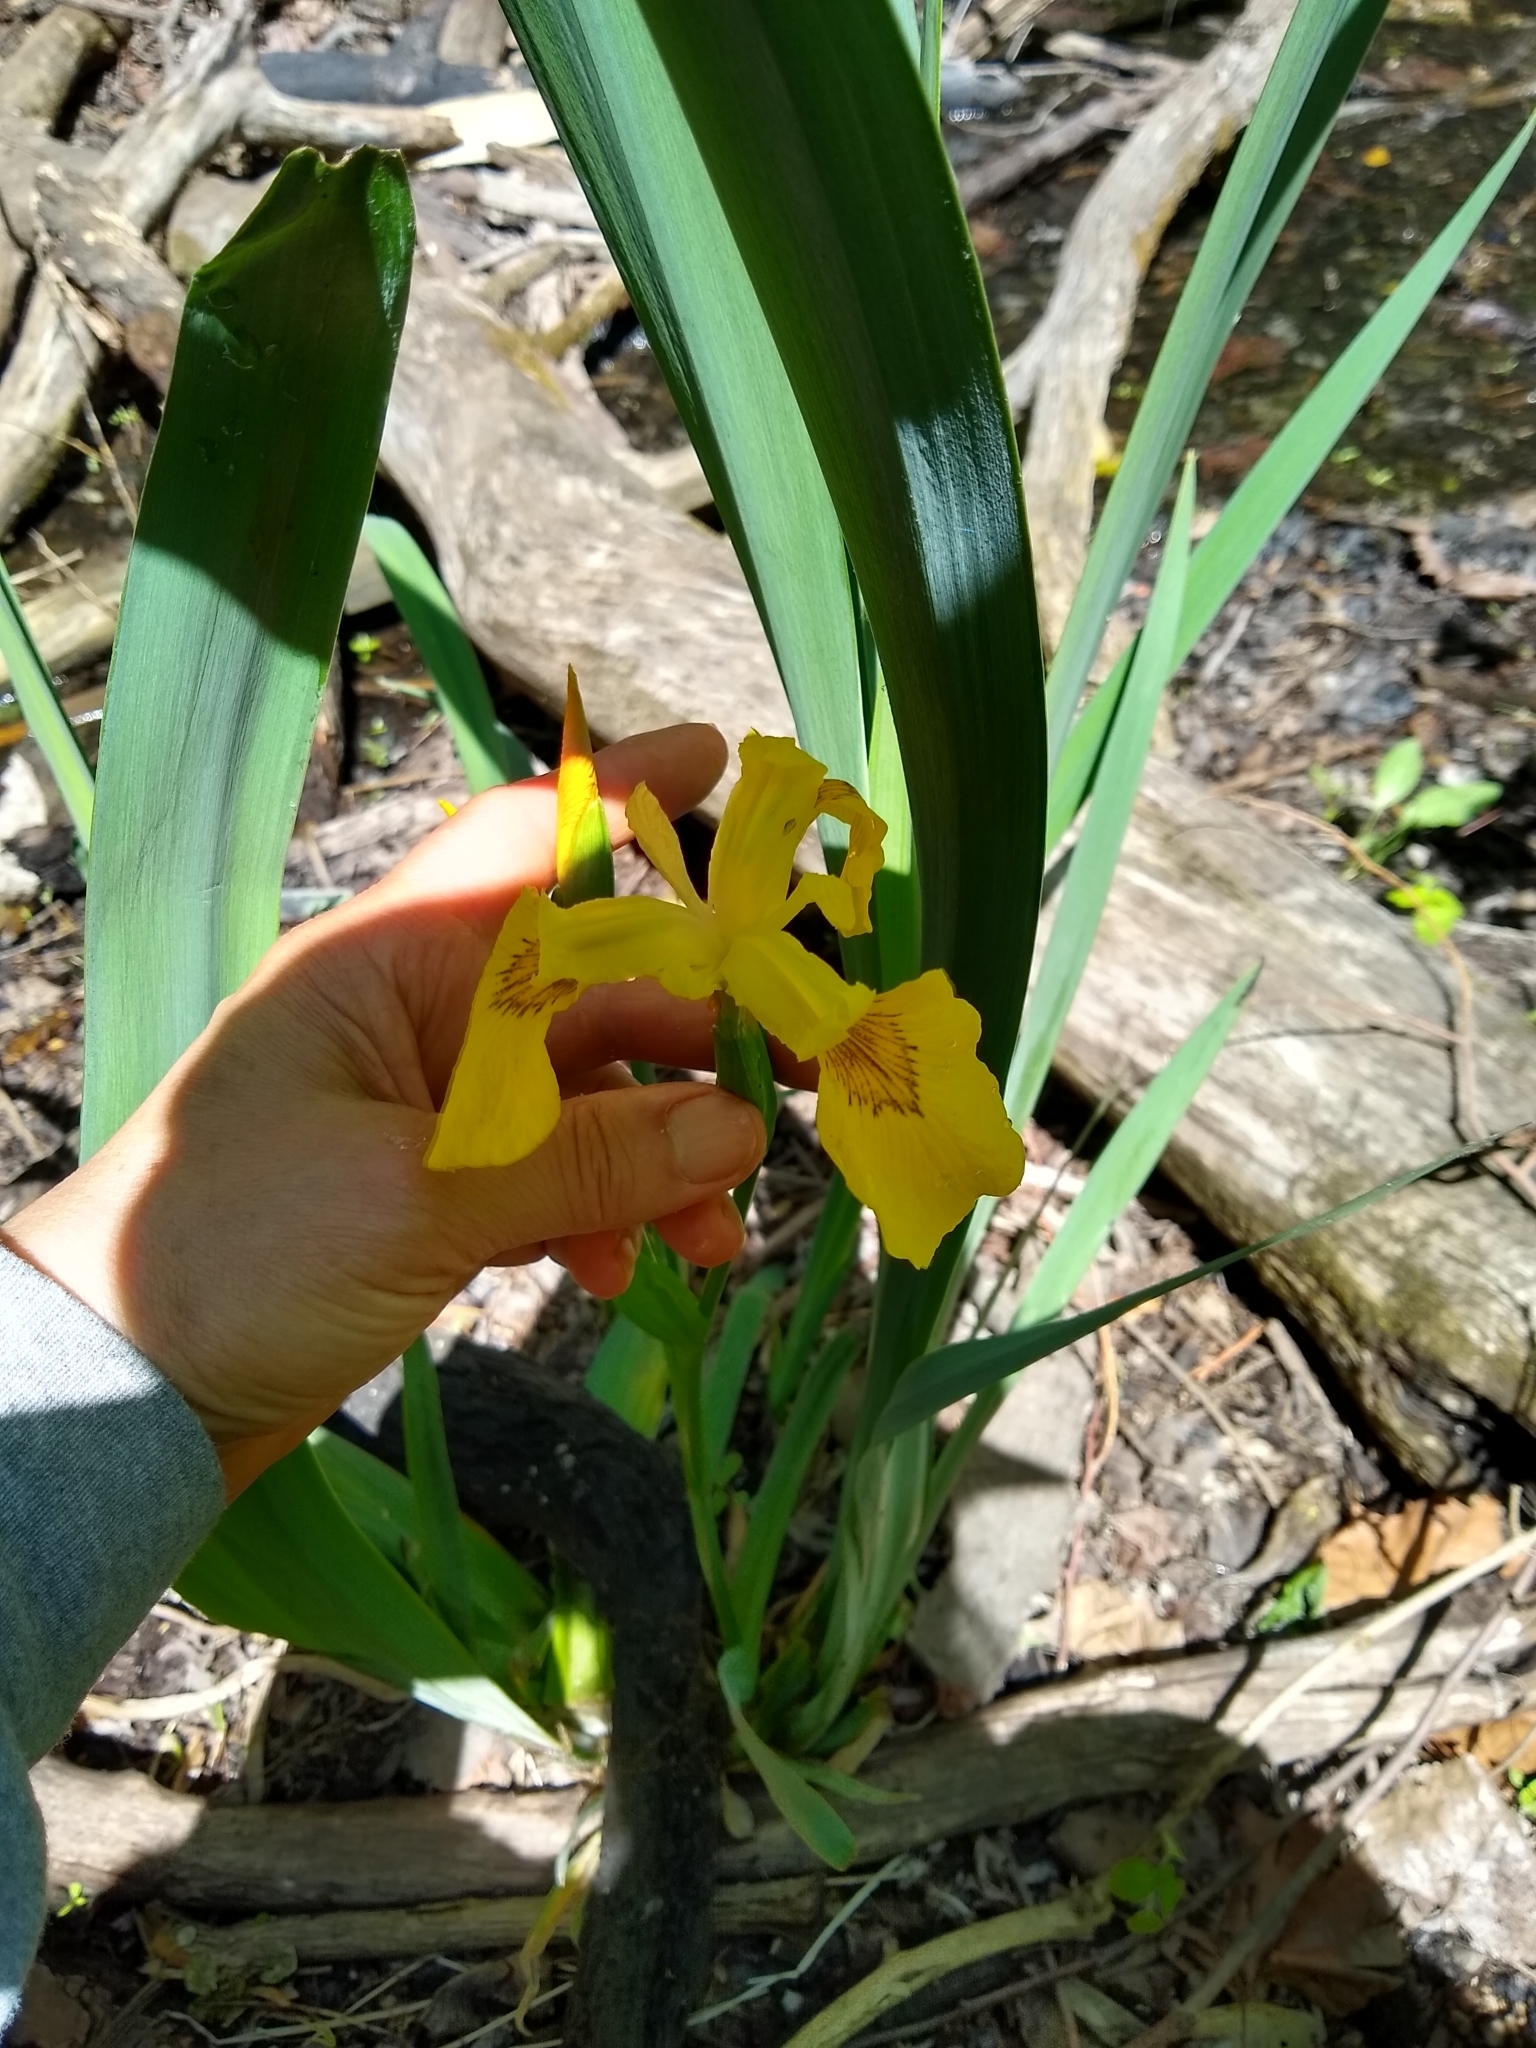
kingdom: Plantae
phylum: Tracheophyta
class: Liliopsida
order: Asparagales
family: Iridaceae
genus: Iris
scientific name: Iris pseudacorus
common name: Yellow flag
